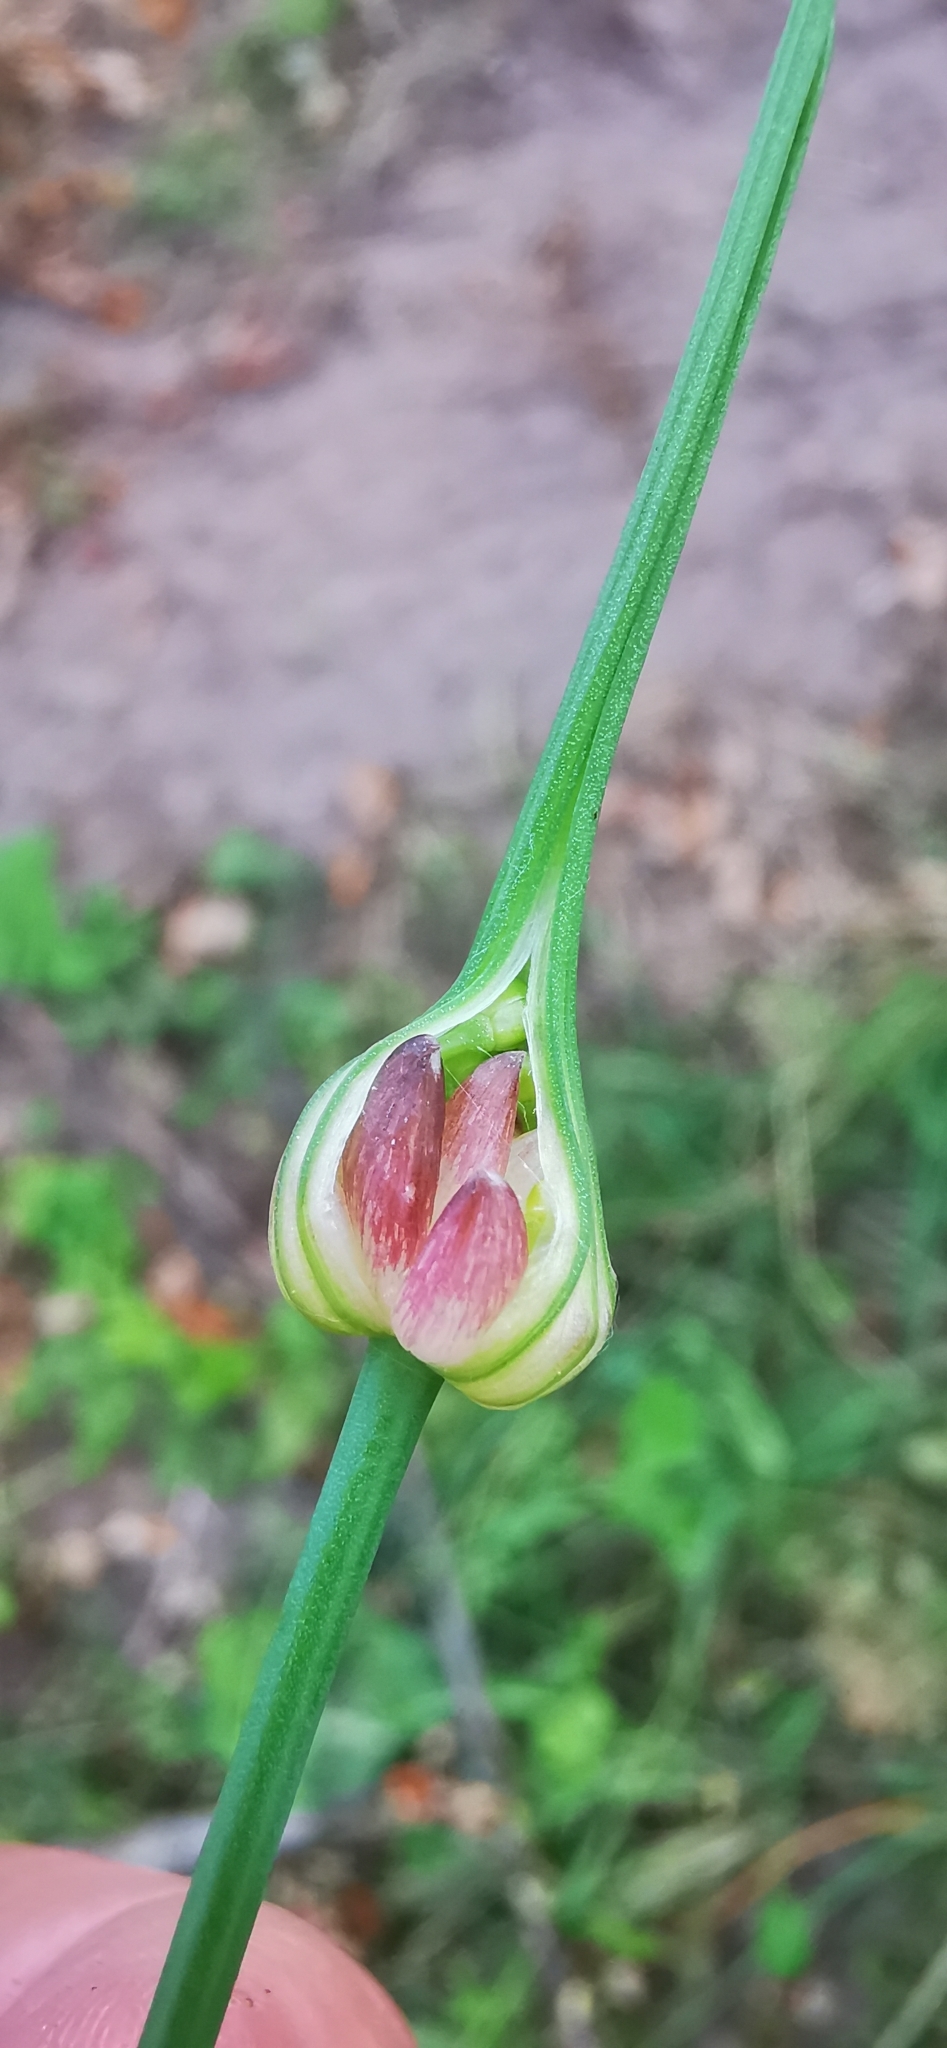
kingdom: Plantae
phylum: Tracheophyta
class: Liliopsida
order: Asparagales
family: Amaryllidaceae
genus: Allium
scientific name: Allium oleraceum
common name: Field garlic
